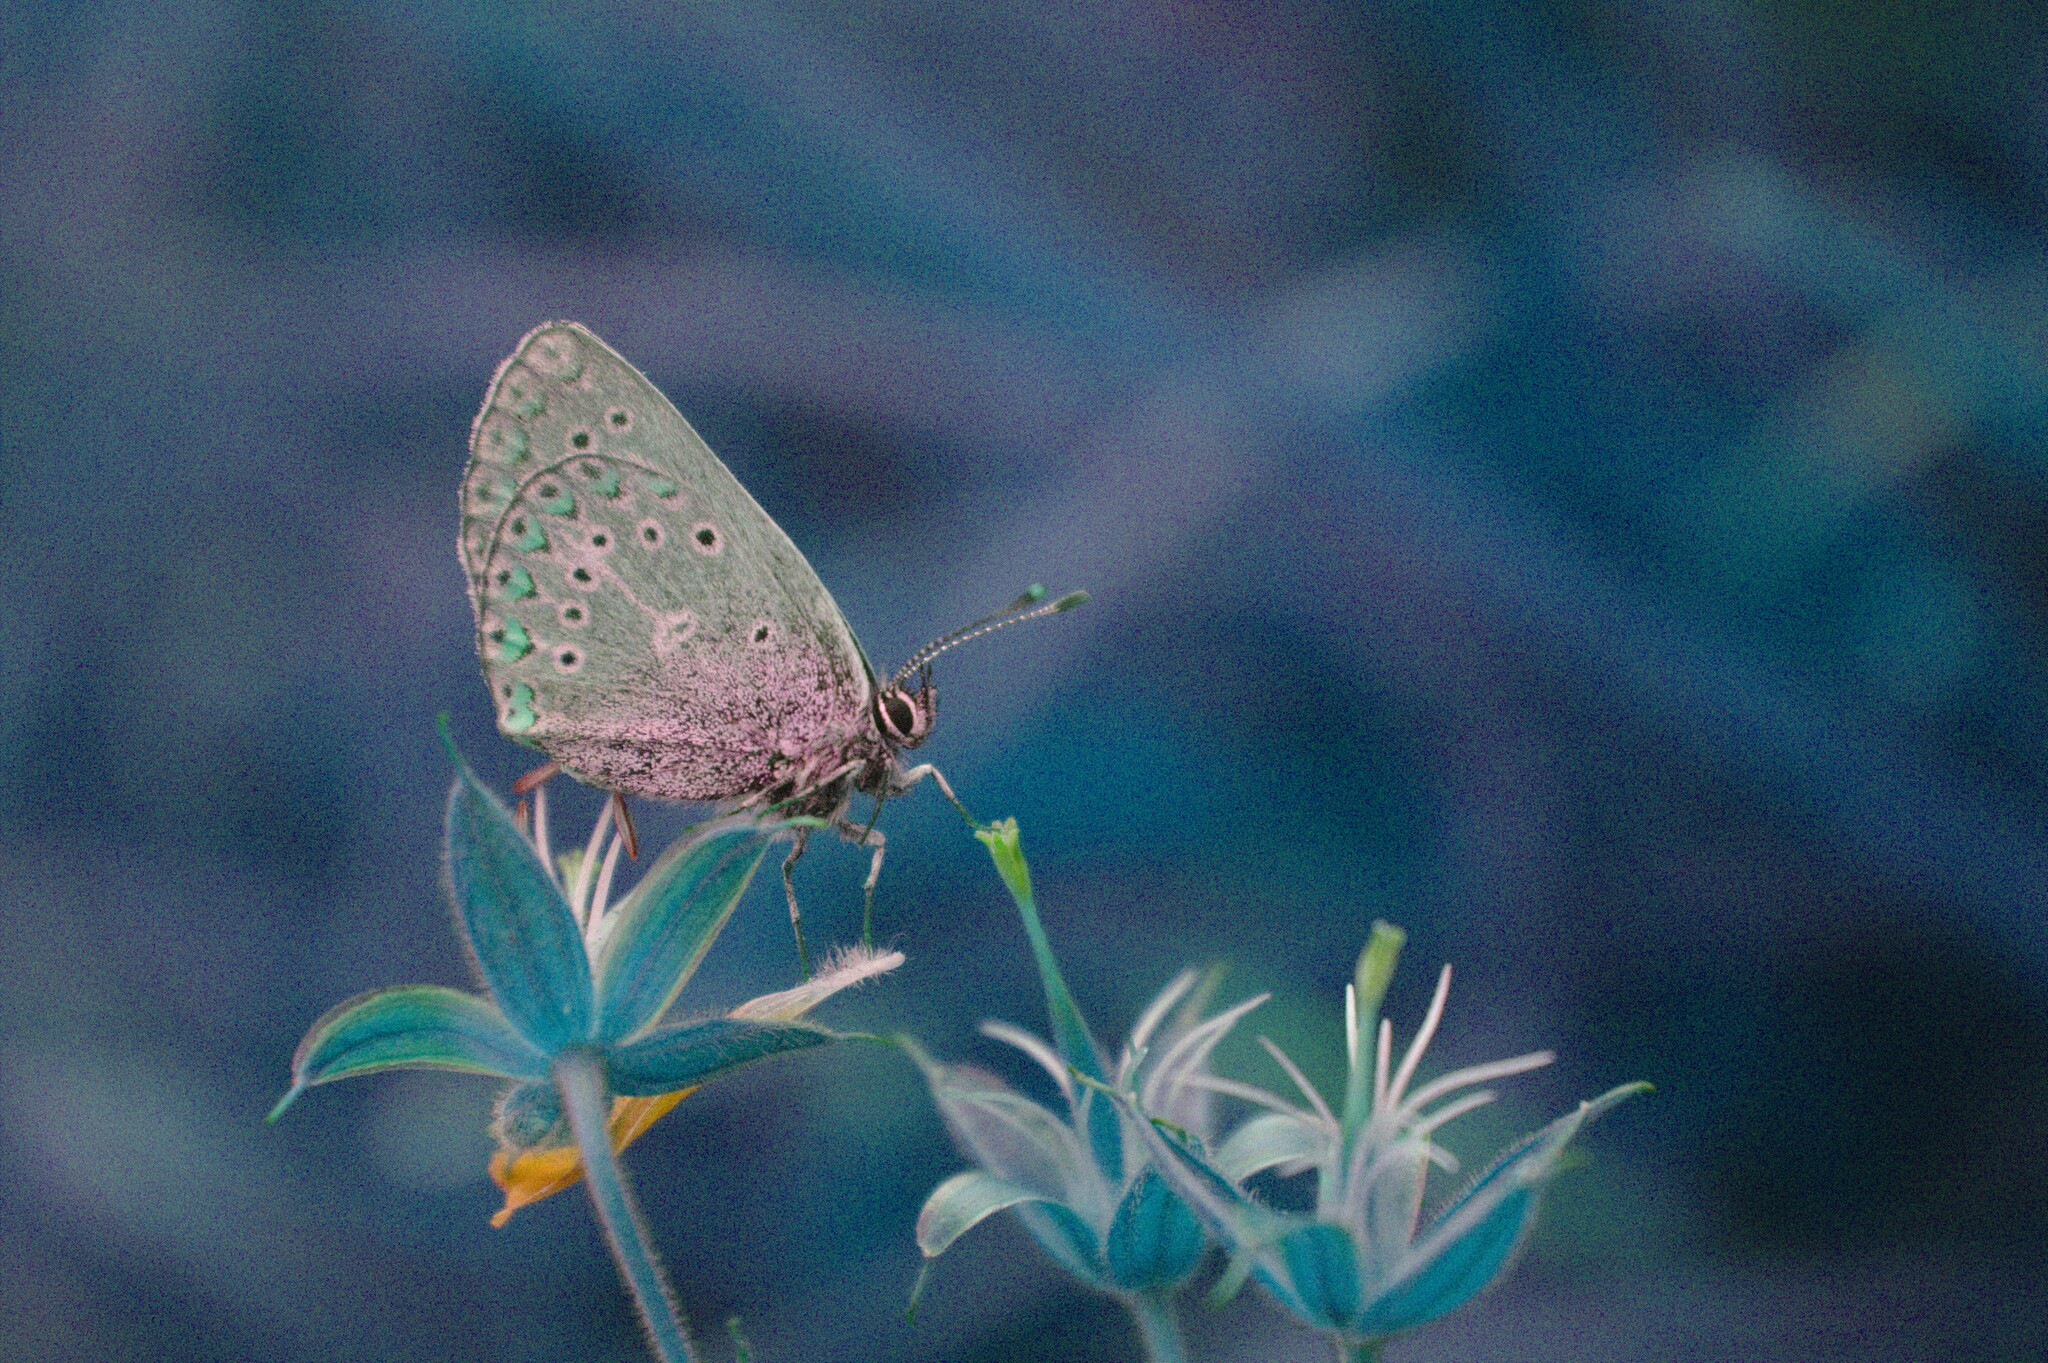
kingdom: Animalia
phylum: Arthropoda
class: Insecta
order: Lepidoptera
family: Lycaenidae
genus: Eumedonia
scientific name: Eumedonia eumedon
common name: Geranium argus
